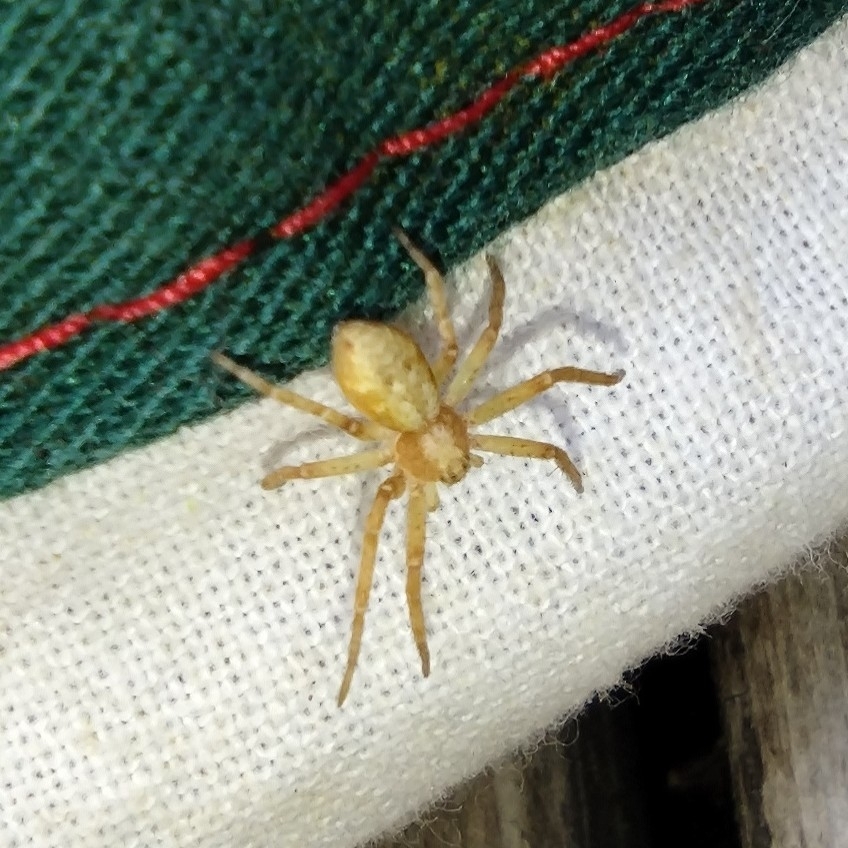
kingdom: Animalia
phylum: Arthropoda
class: Arachnida
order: Araneae
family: Philodromidae
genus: Philodromus
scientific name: Philodromus
